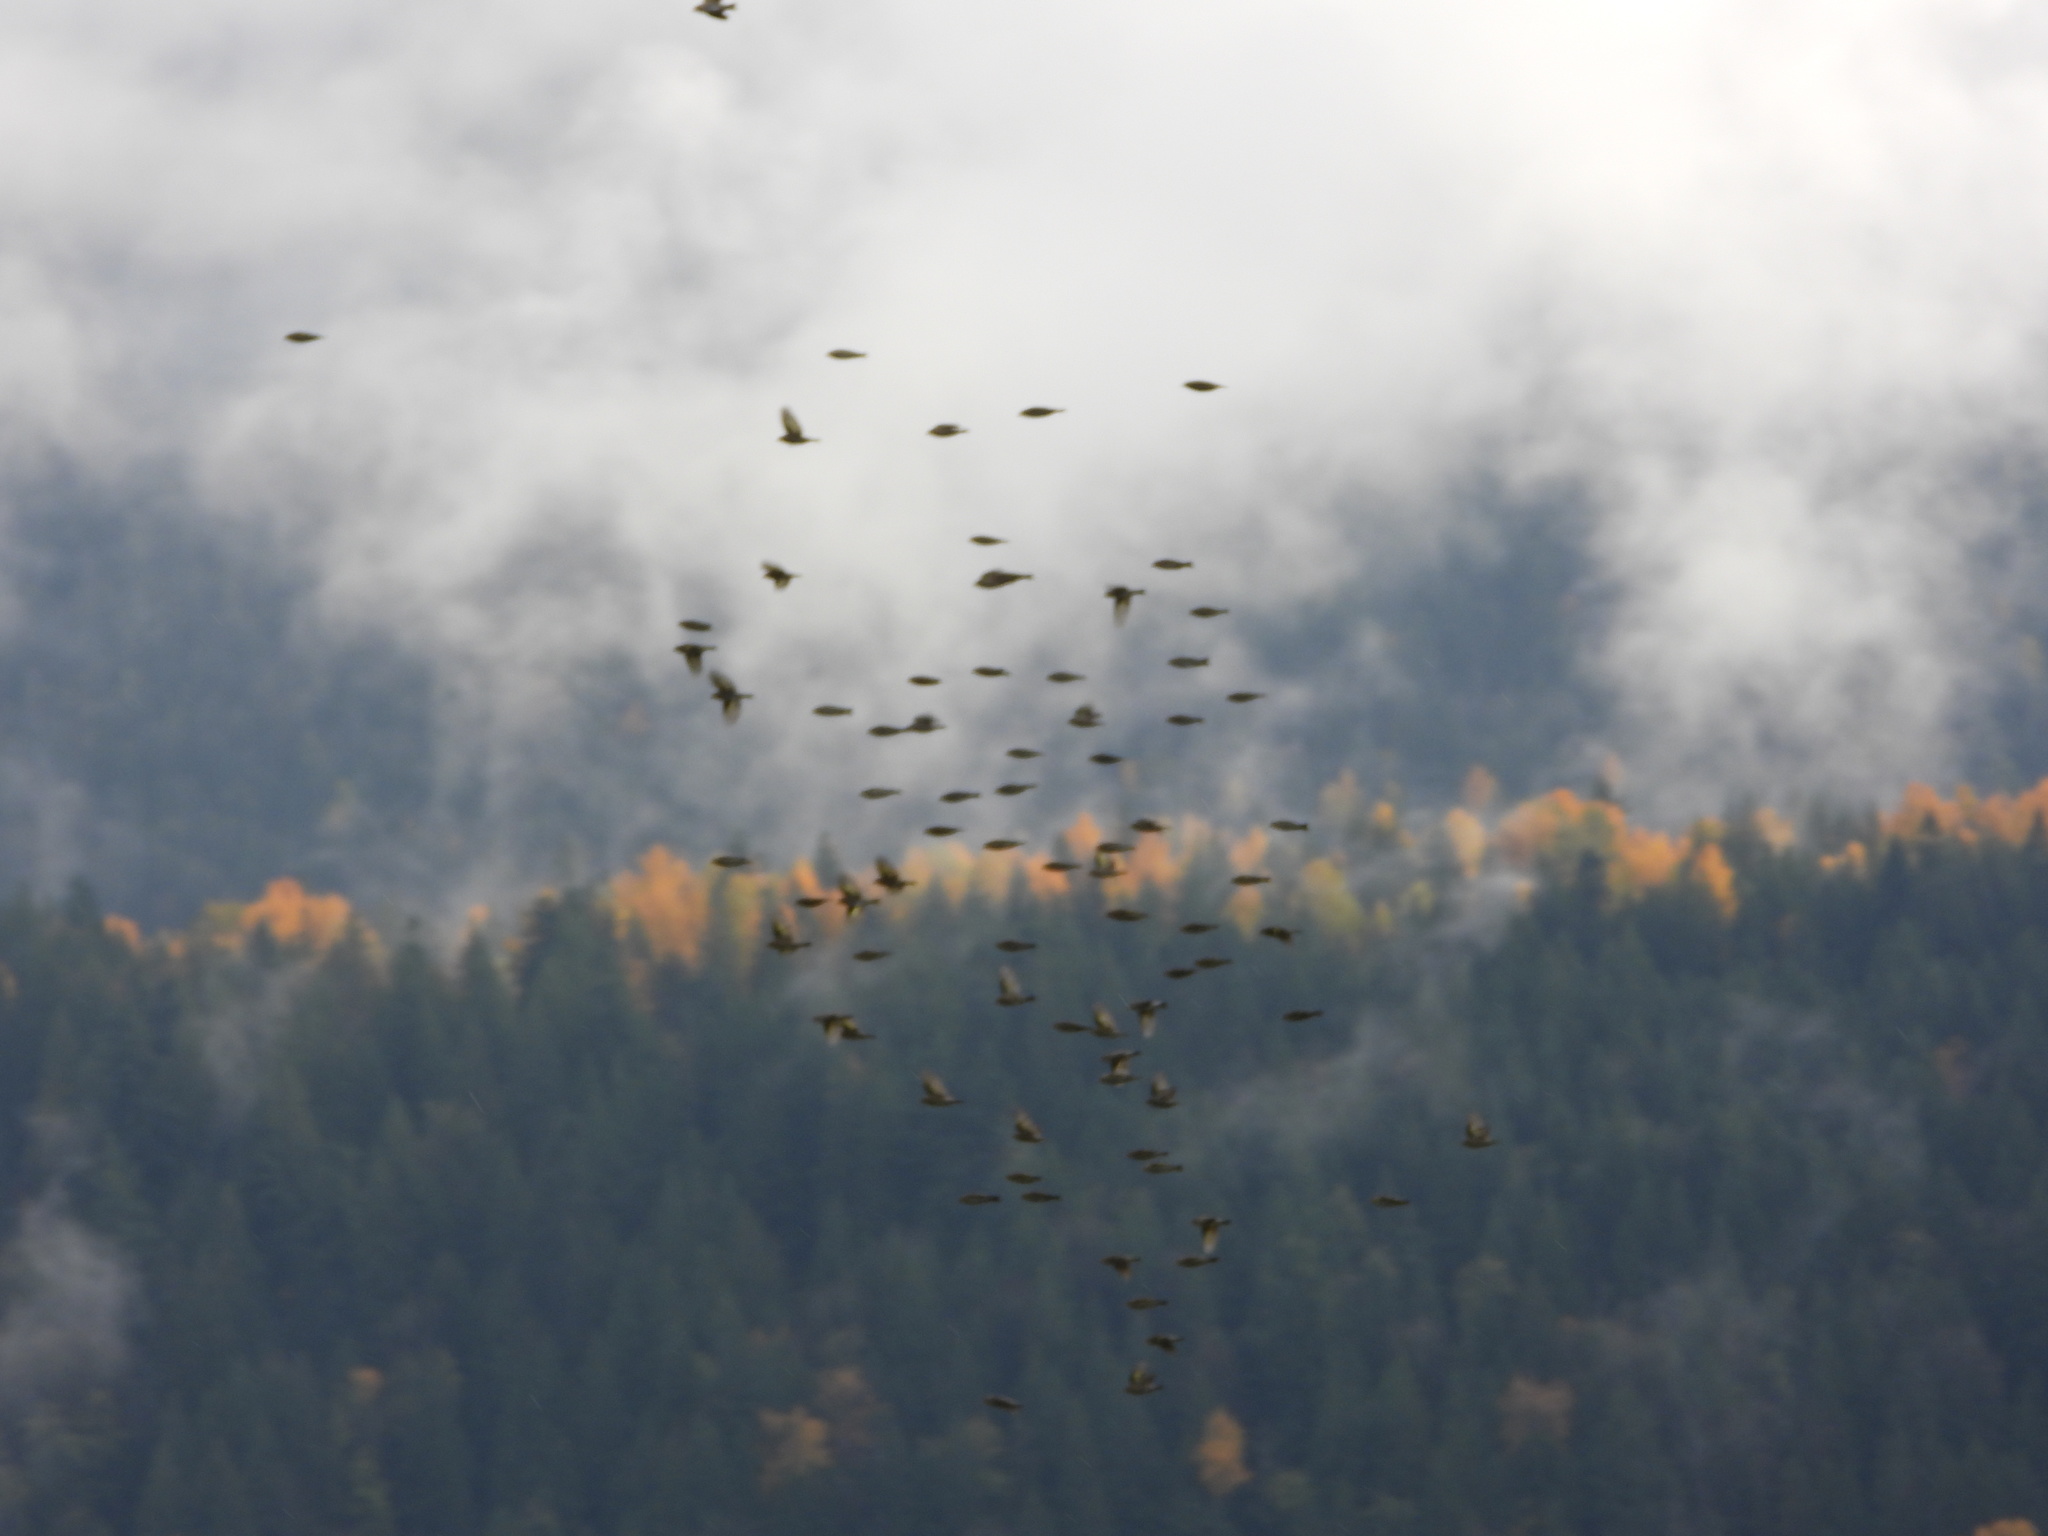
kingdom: Animalia
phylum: Chordata
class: Aves
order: Passeriformes
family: Fringillidae
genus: Spinus
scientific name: Spinus pinus
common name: Pine siskin
